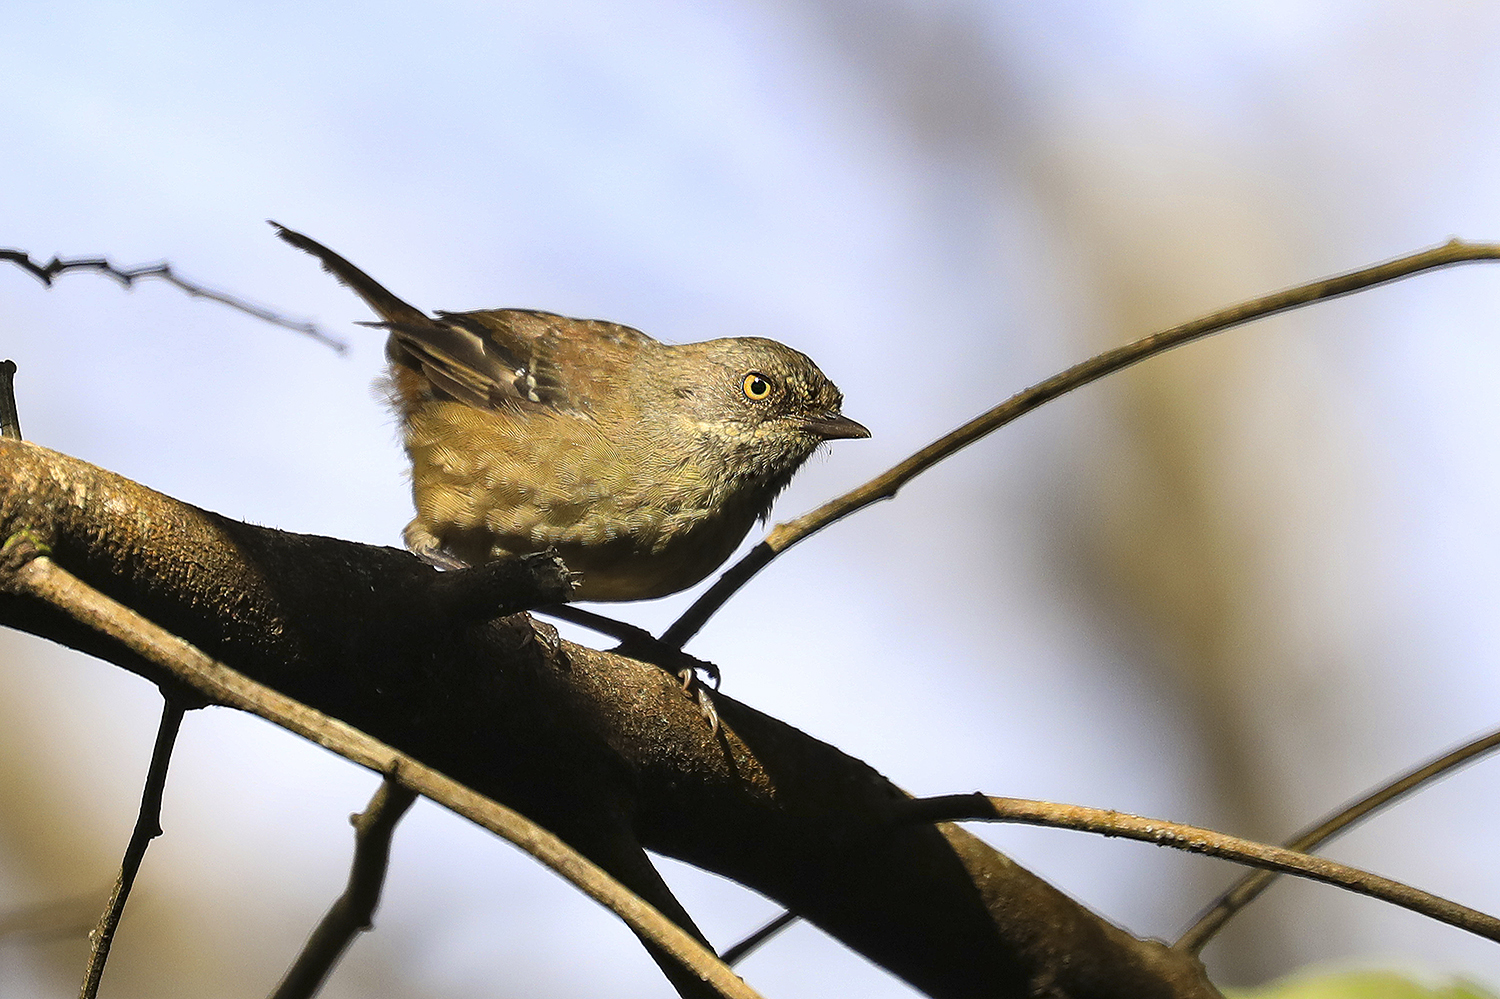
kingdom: Animalia
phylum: Chordata
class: Aves
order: Passeriformes
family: Acanthizidae
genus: Sericornis
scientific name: Sericornis humilis
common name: Tasmanian scrubwren
